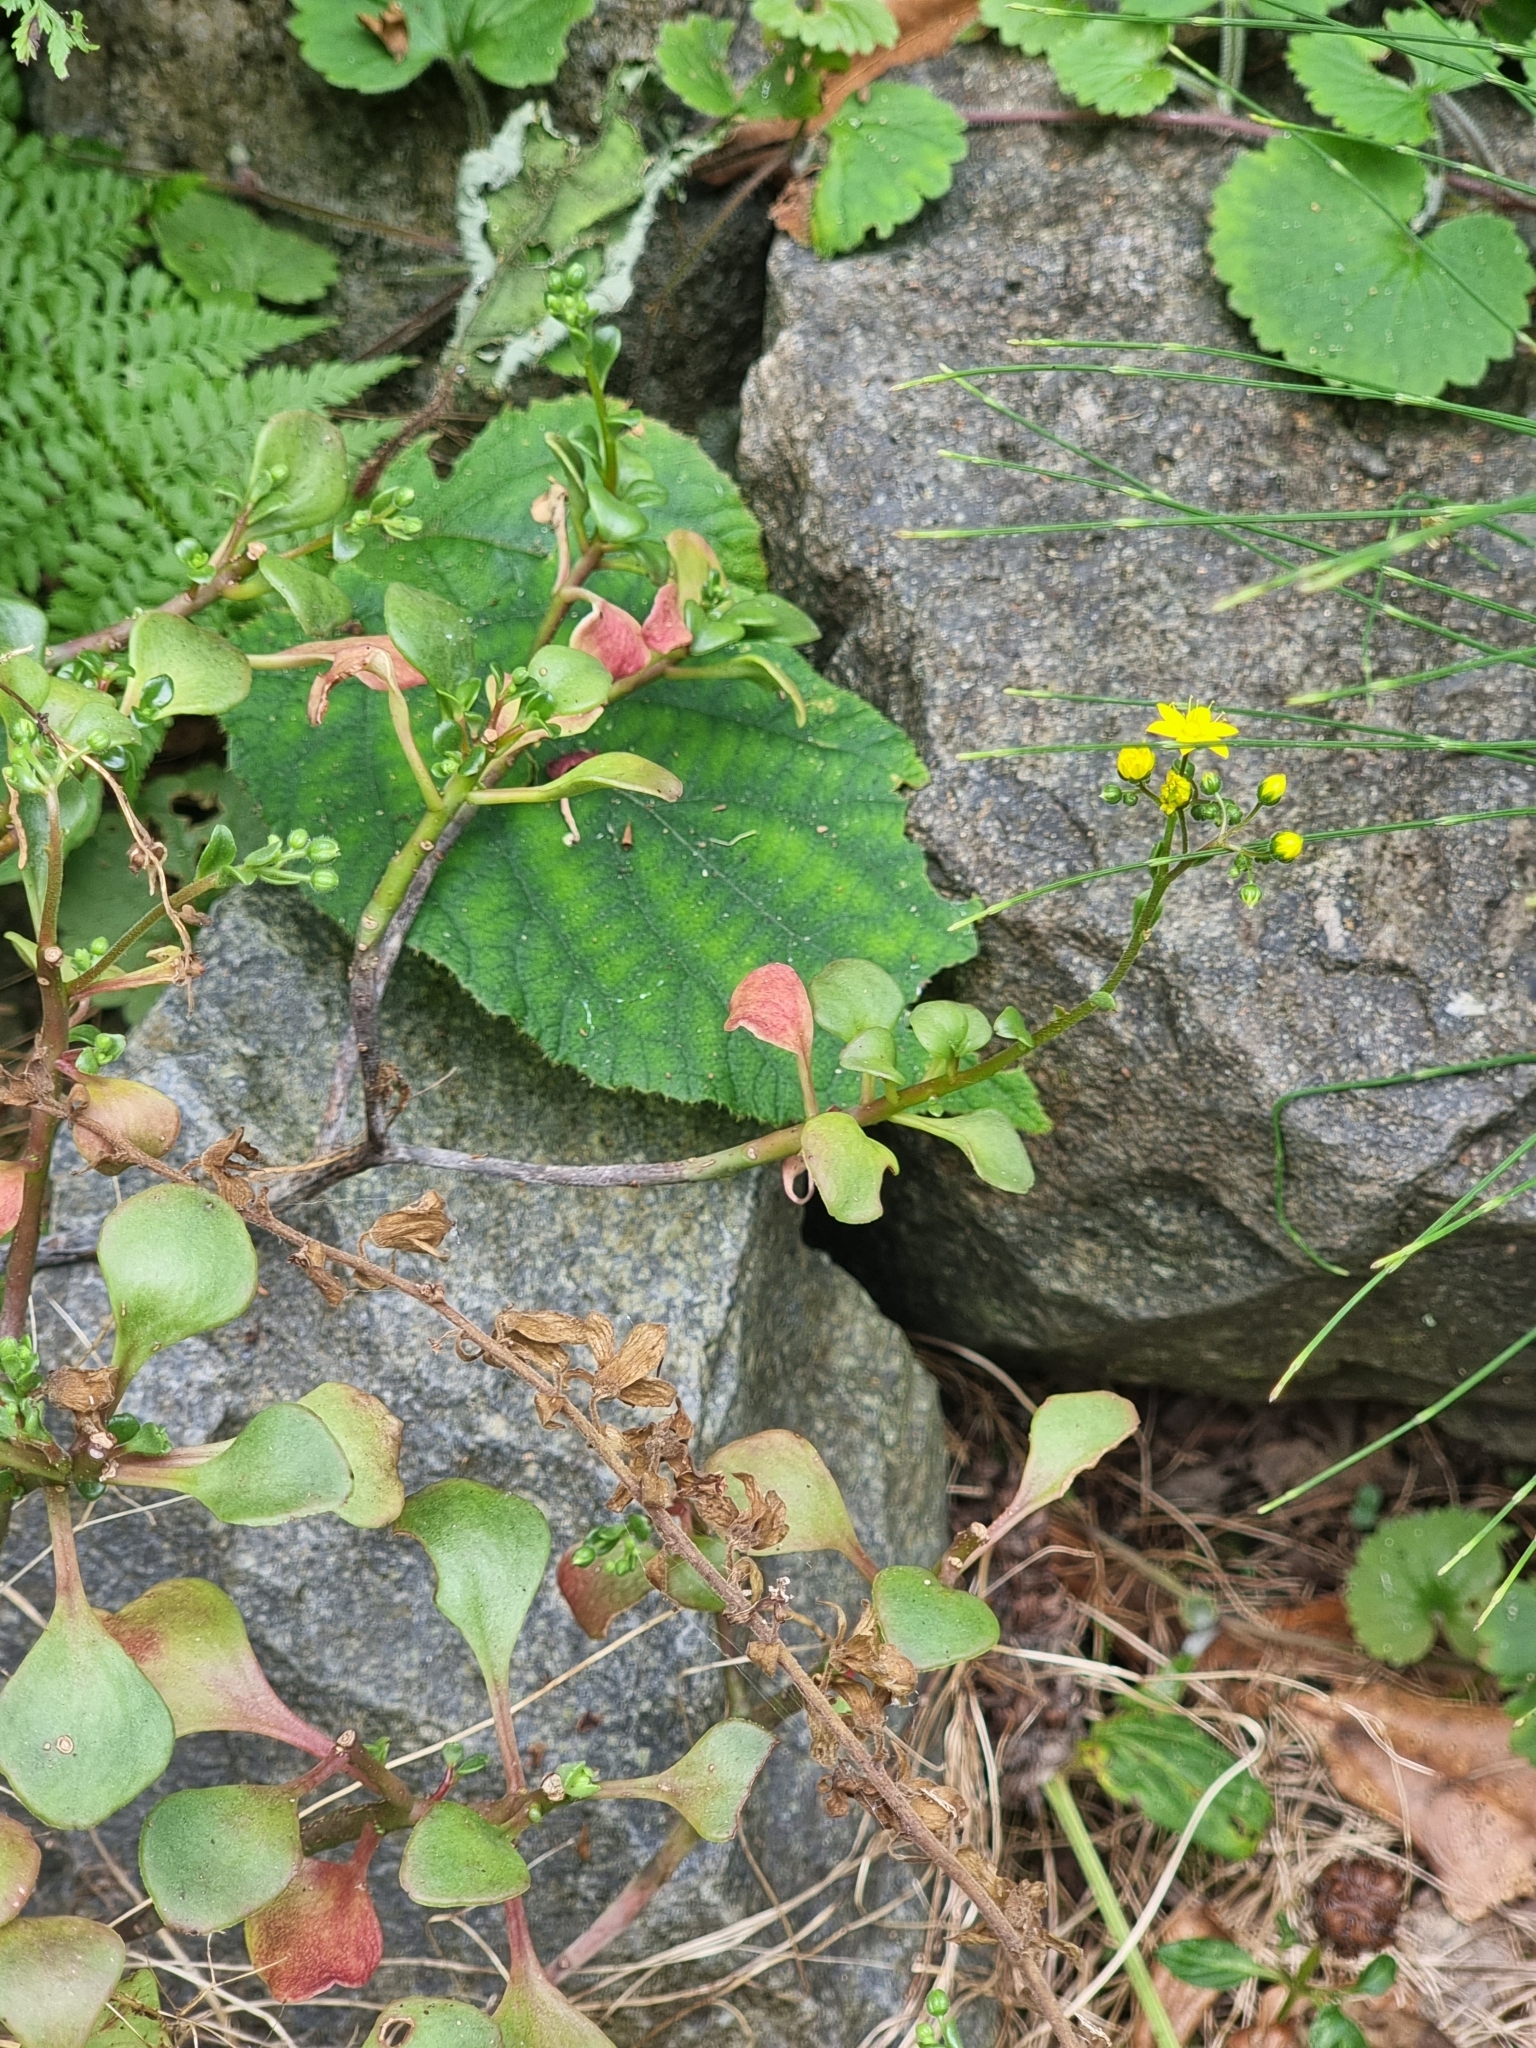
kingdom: Plantae
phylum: Tracheophyta
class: Magnoliopsida
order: Saxifragales
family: Crassulaceae
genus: Aichryson
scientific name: Aichryson divaricatum
